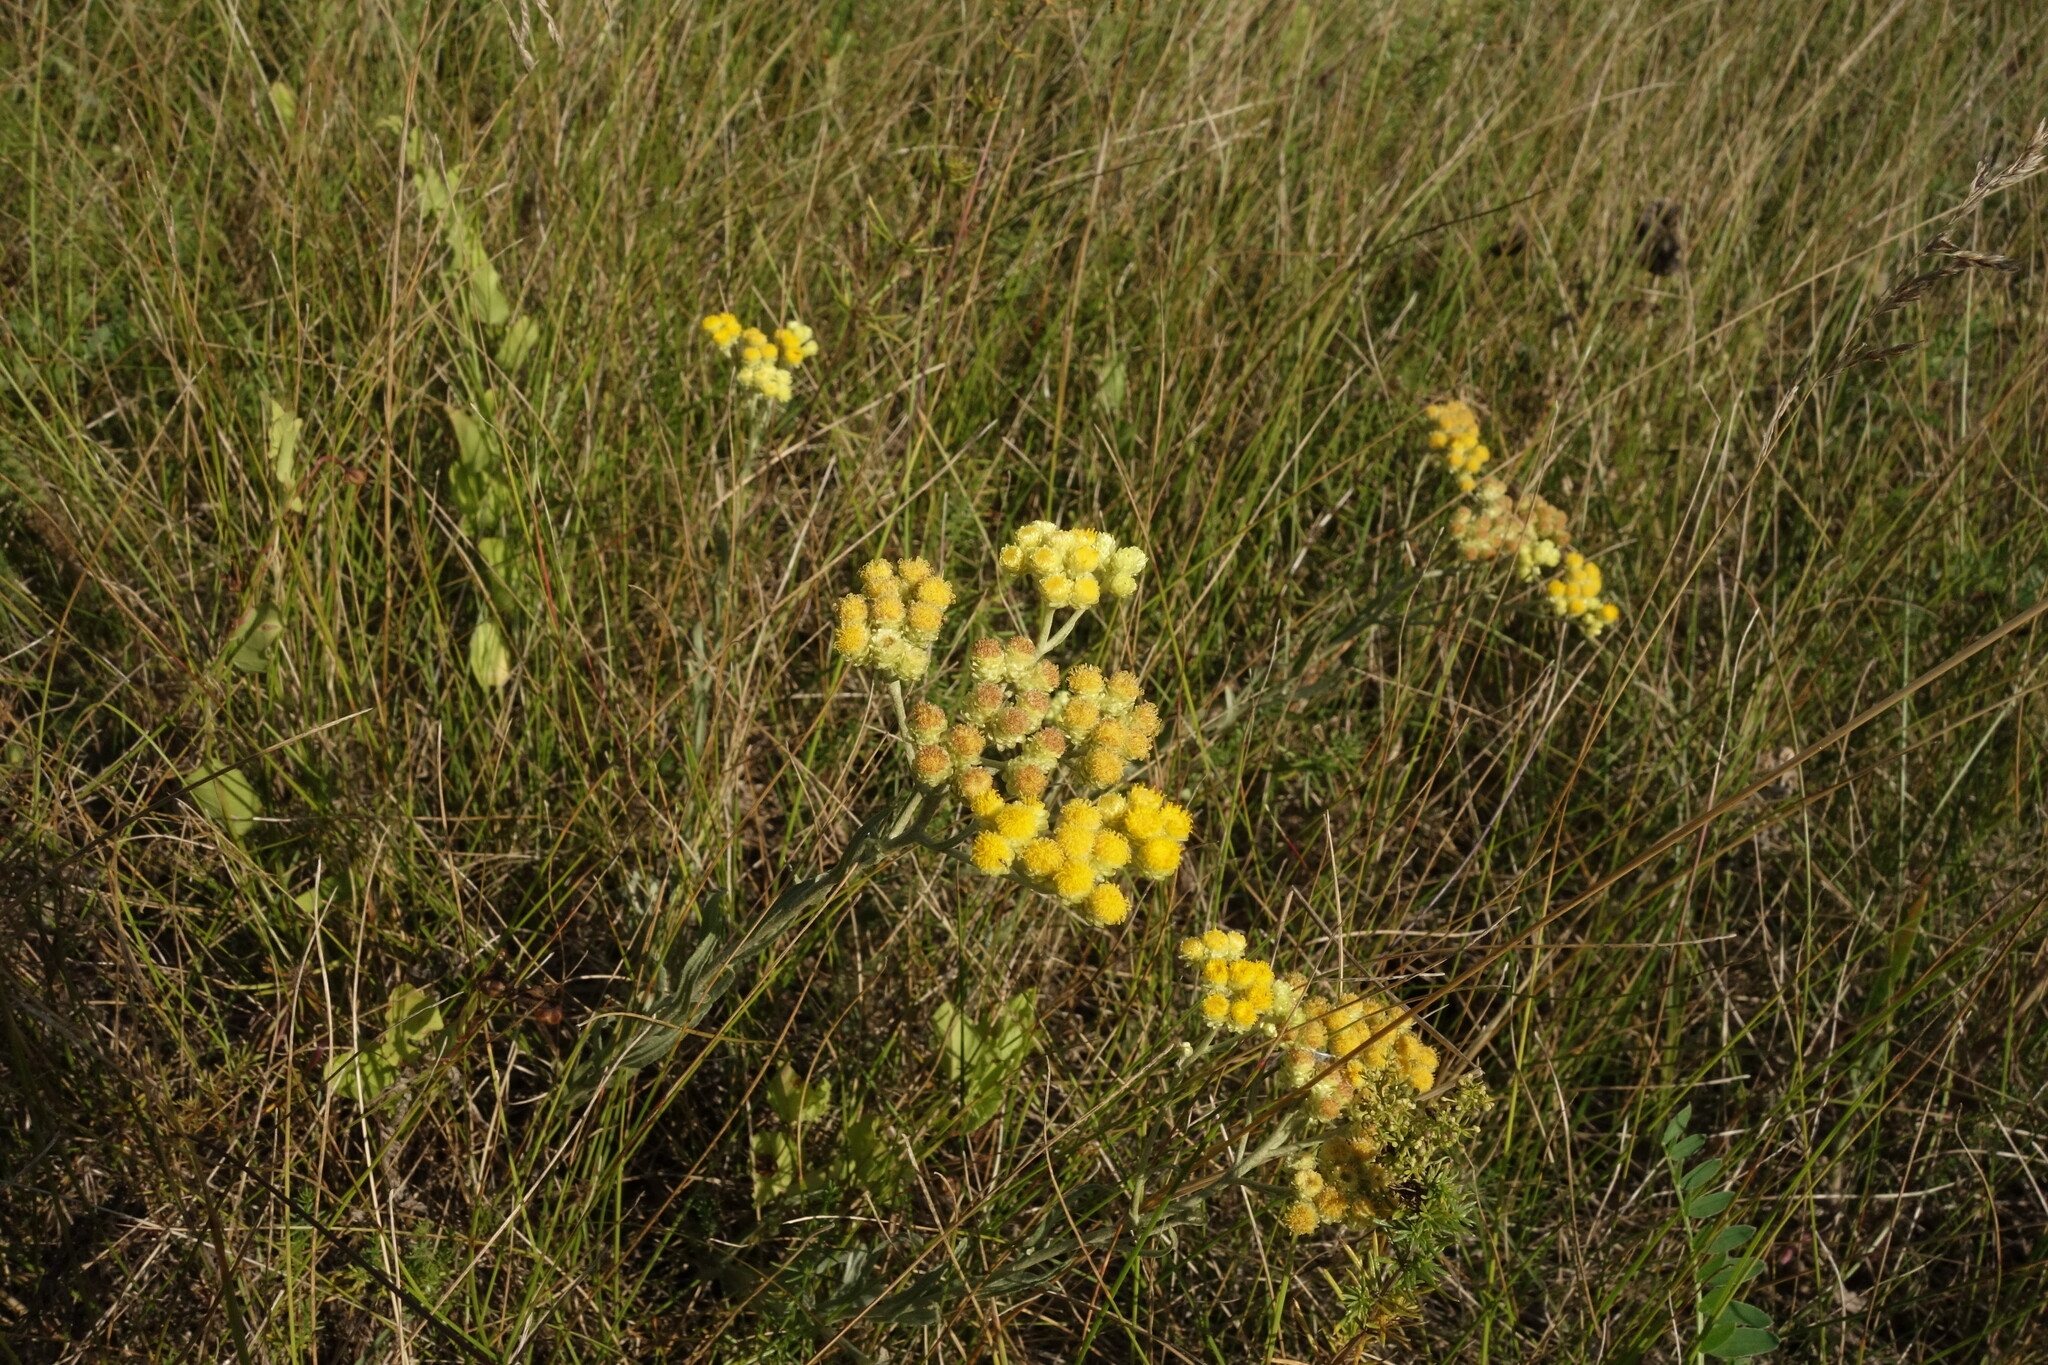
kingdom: Plantae
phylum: Tracheophyta
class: Magnoliopsida
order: Asterales
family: Asteraceae
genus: Helichrysum
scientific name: Helichrysum arenarium
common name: Strawflower
